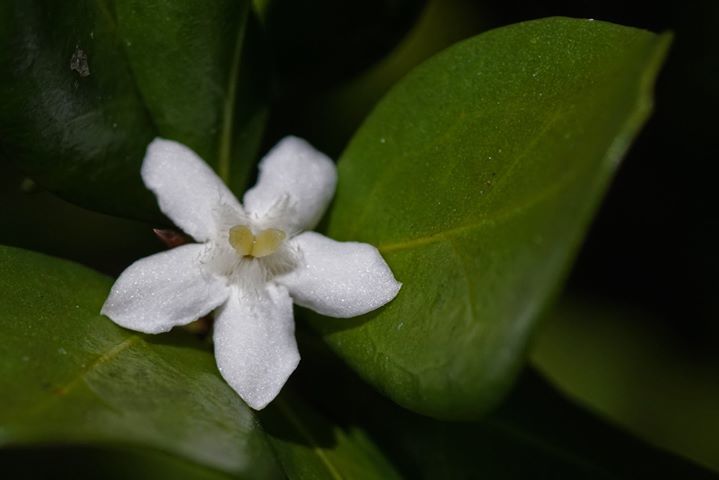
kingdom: Plantae
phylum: Tracheophyta
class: Magnoliopsida
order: Gentianales
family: Rubiaceae
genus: Randia
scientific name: Randia aculeata
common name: Inkberry
